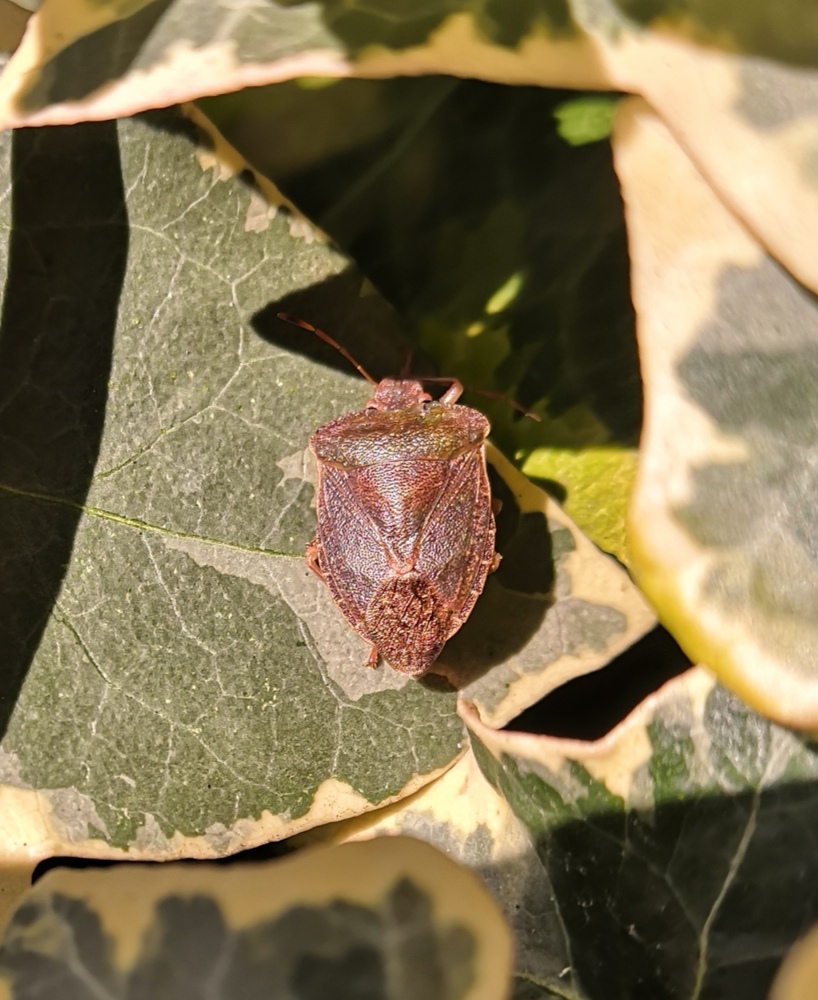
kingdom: Animalia
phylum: Arthropoda
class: Insecta
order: Hemiptera
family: Pentatomidae
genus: Palomena
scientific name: Palomena prasina
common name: Green shieldbug
